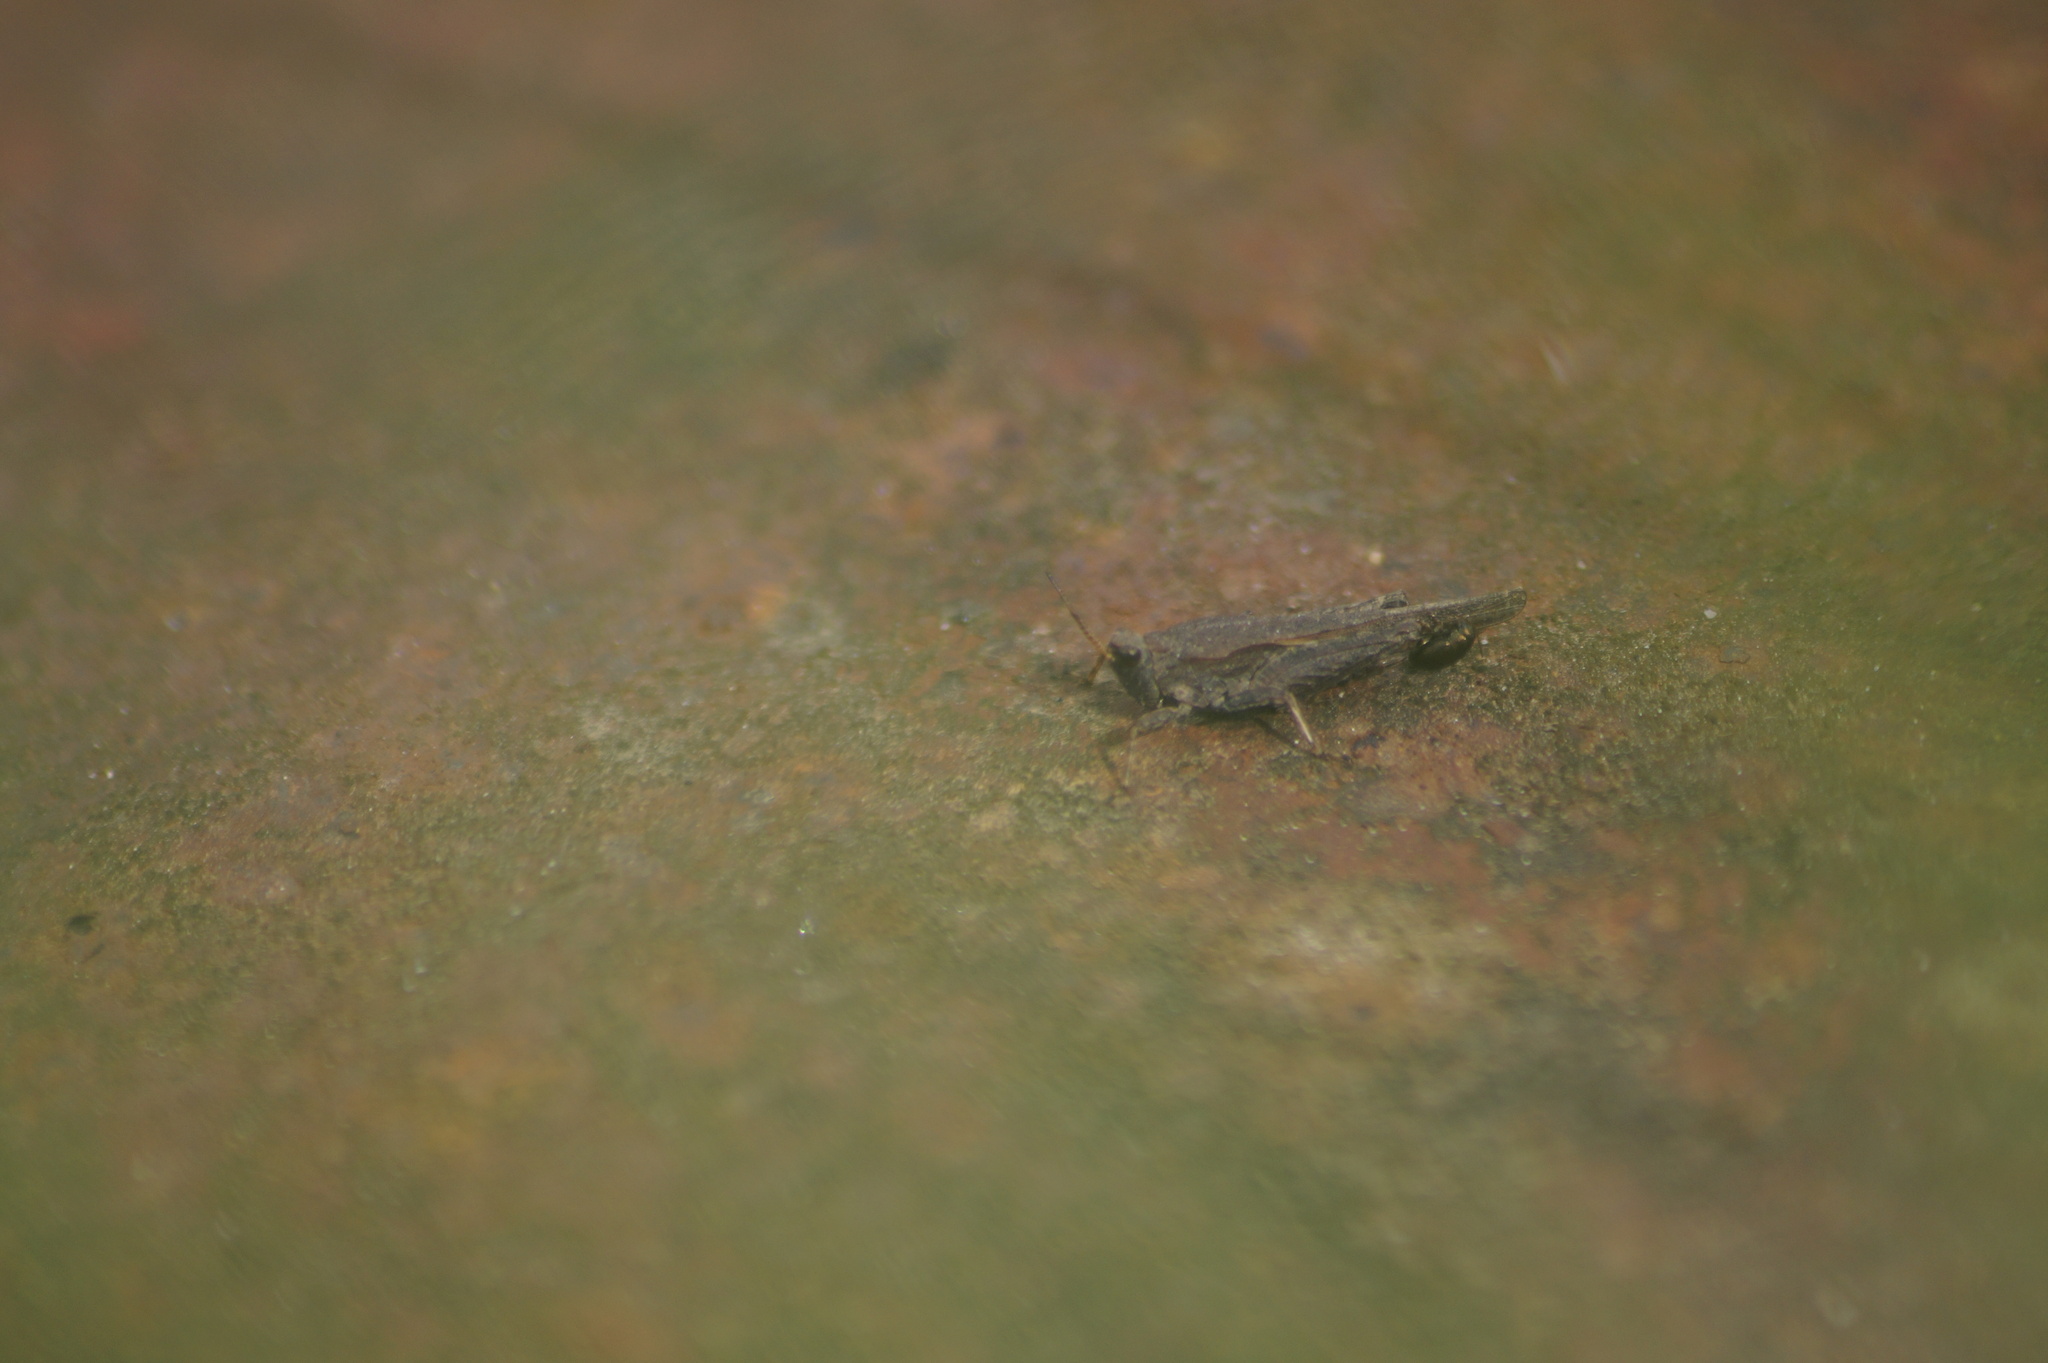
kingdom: Animalia
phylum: Arthropoda
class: Insecta
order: Orthoptera
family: Tetrigidae
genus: Tetrix
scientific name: Tetrix subulata
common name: Slender ground-hopper
